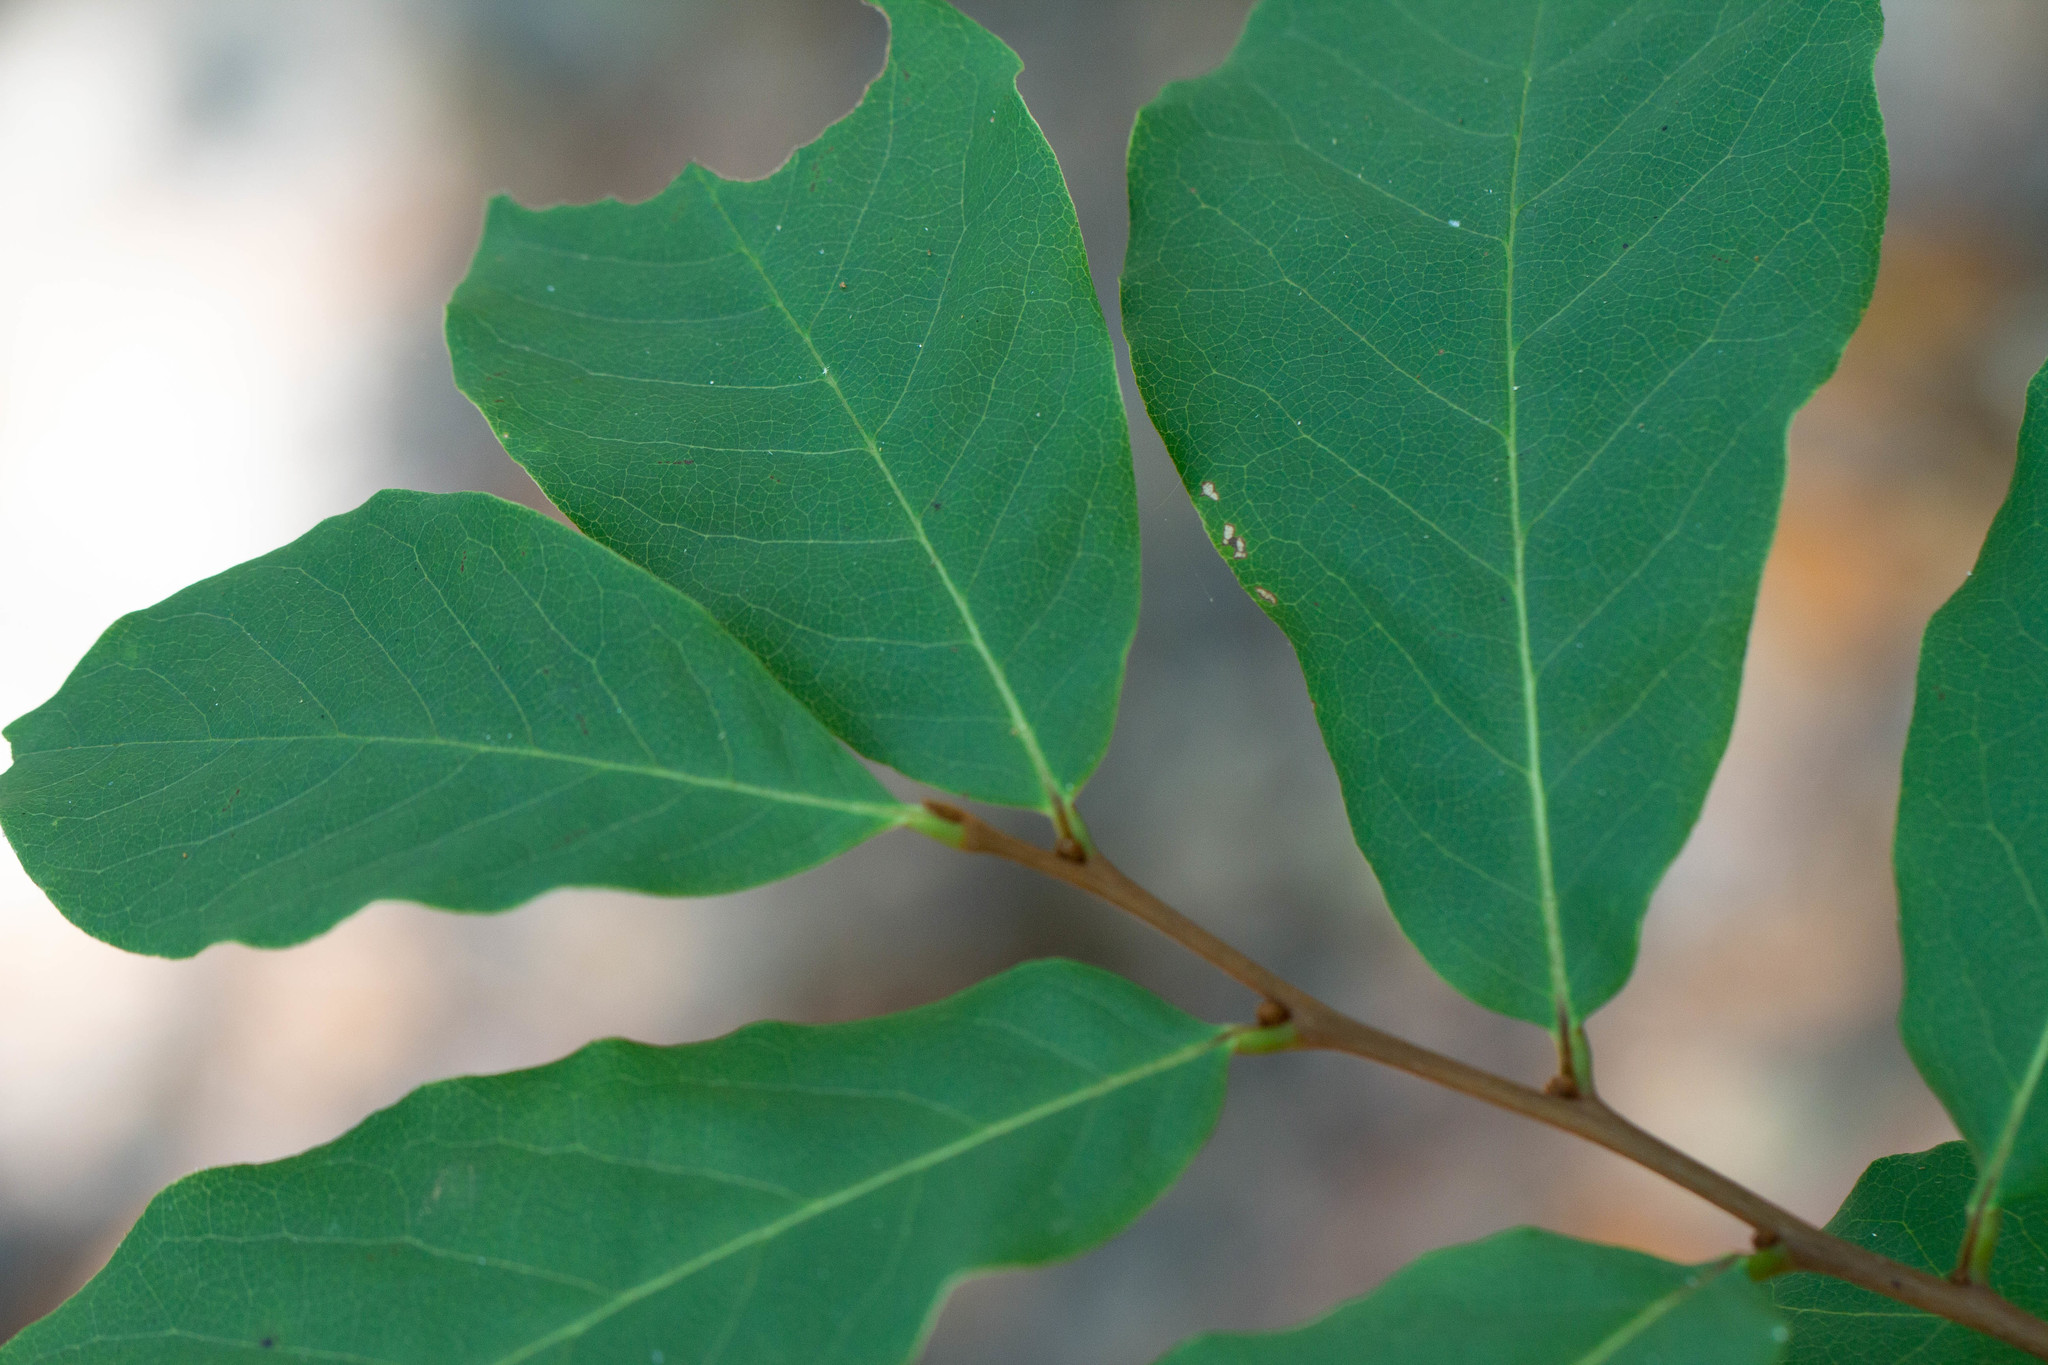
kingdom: Plantae
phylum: Tracheophyta
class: Magnoliopsida
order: Magnoliales
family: Annonaceae
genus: Asimina
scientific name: Asimina parviflora
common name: Dwarf pawpaw
